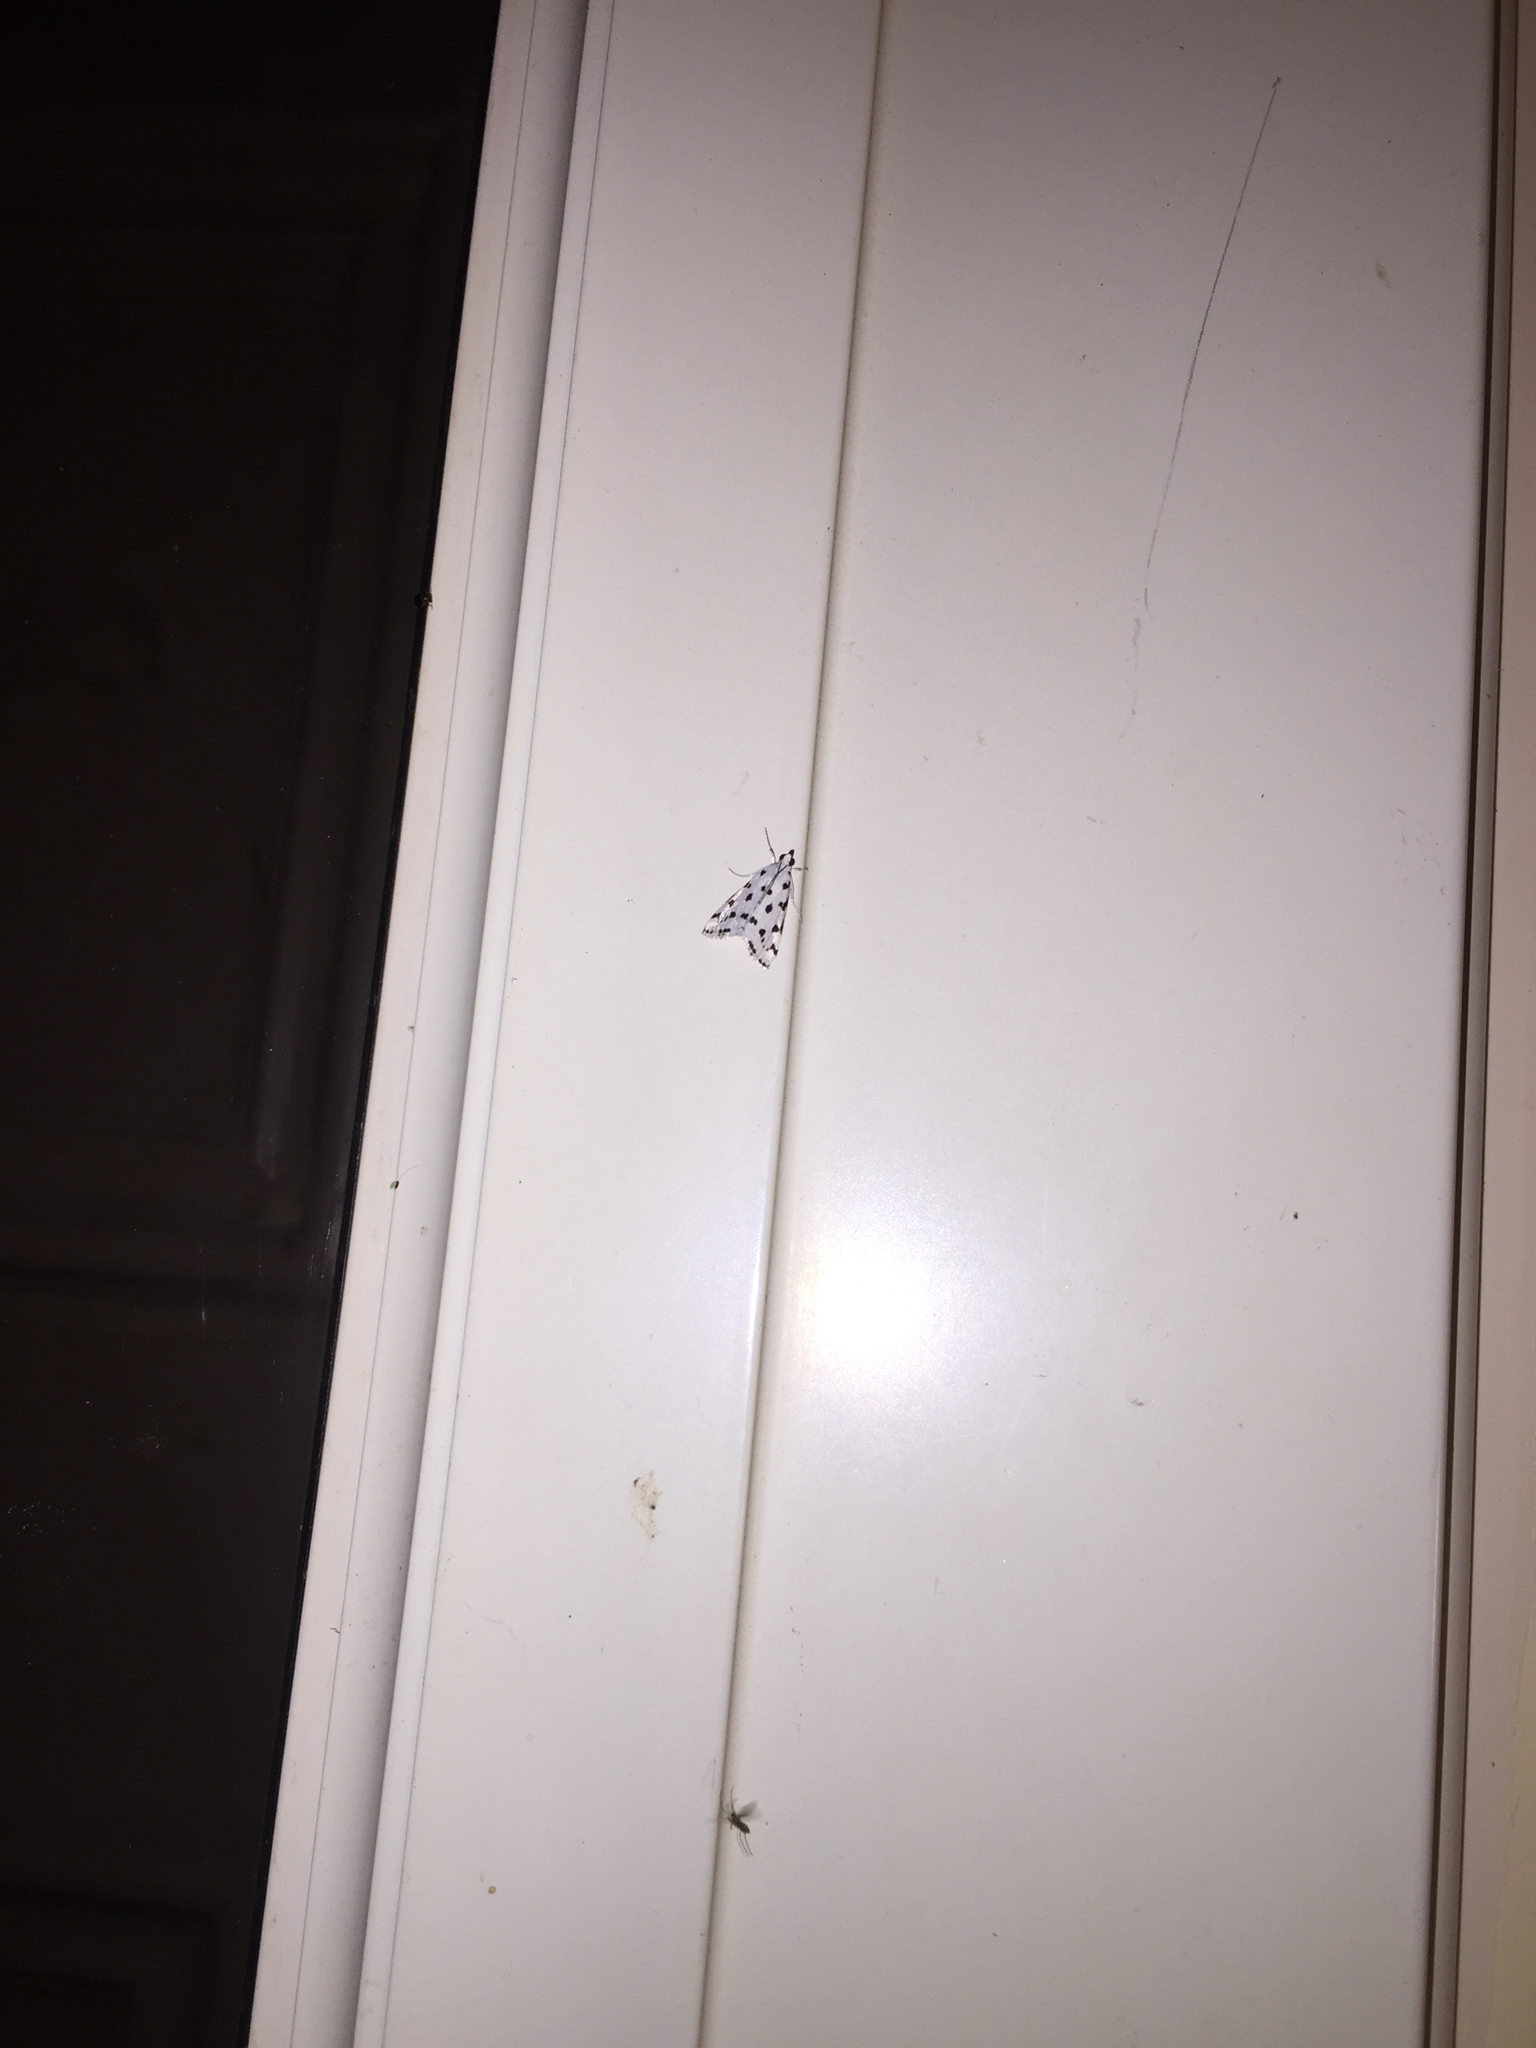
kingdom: Animalia
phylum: Arthropoda
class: Insecta
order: Lepidoptera
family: Crambidae
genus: Eustixia
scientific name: Eustixia pupula
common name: American cabbage pearl
